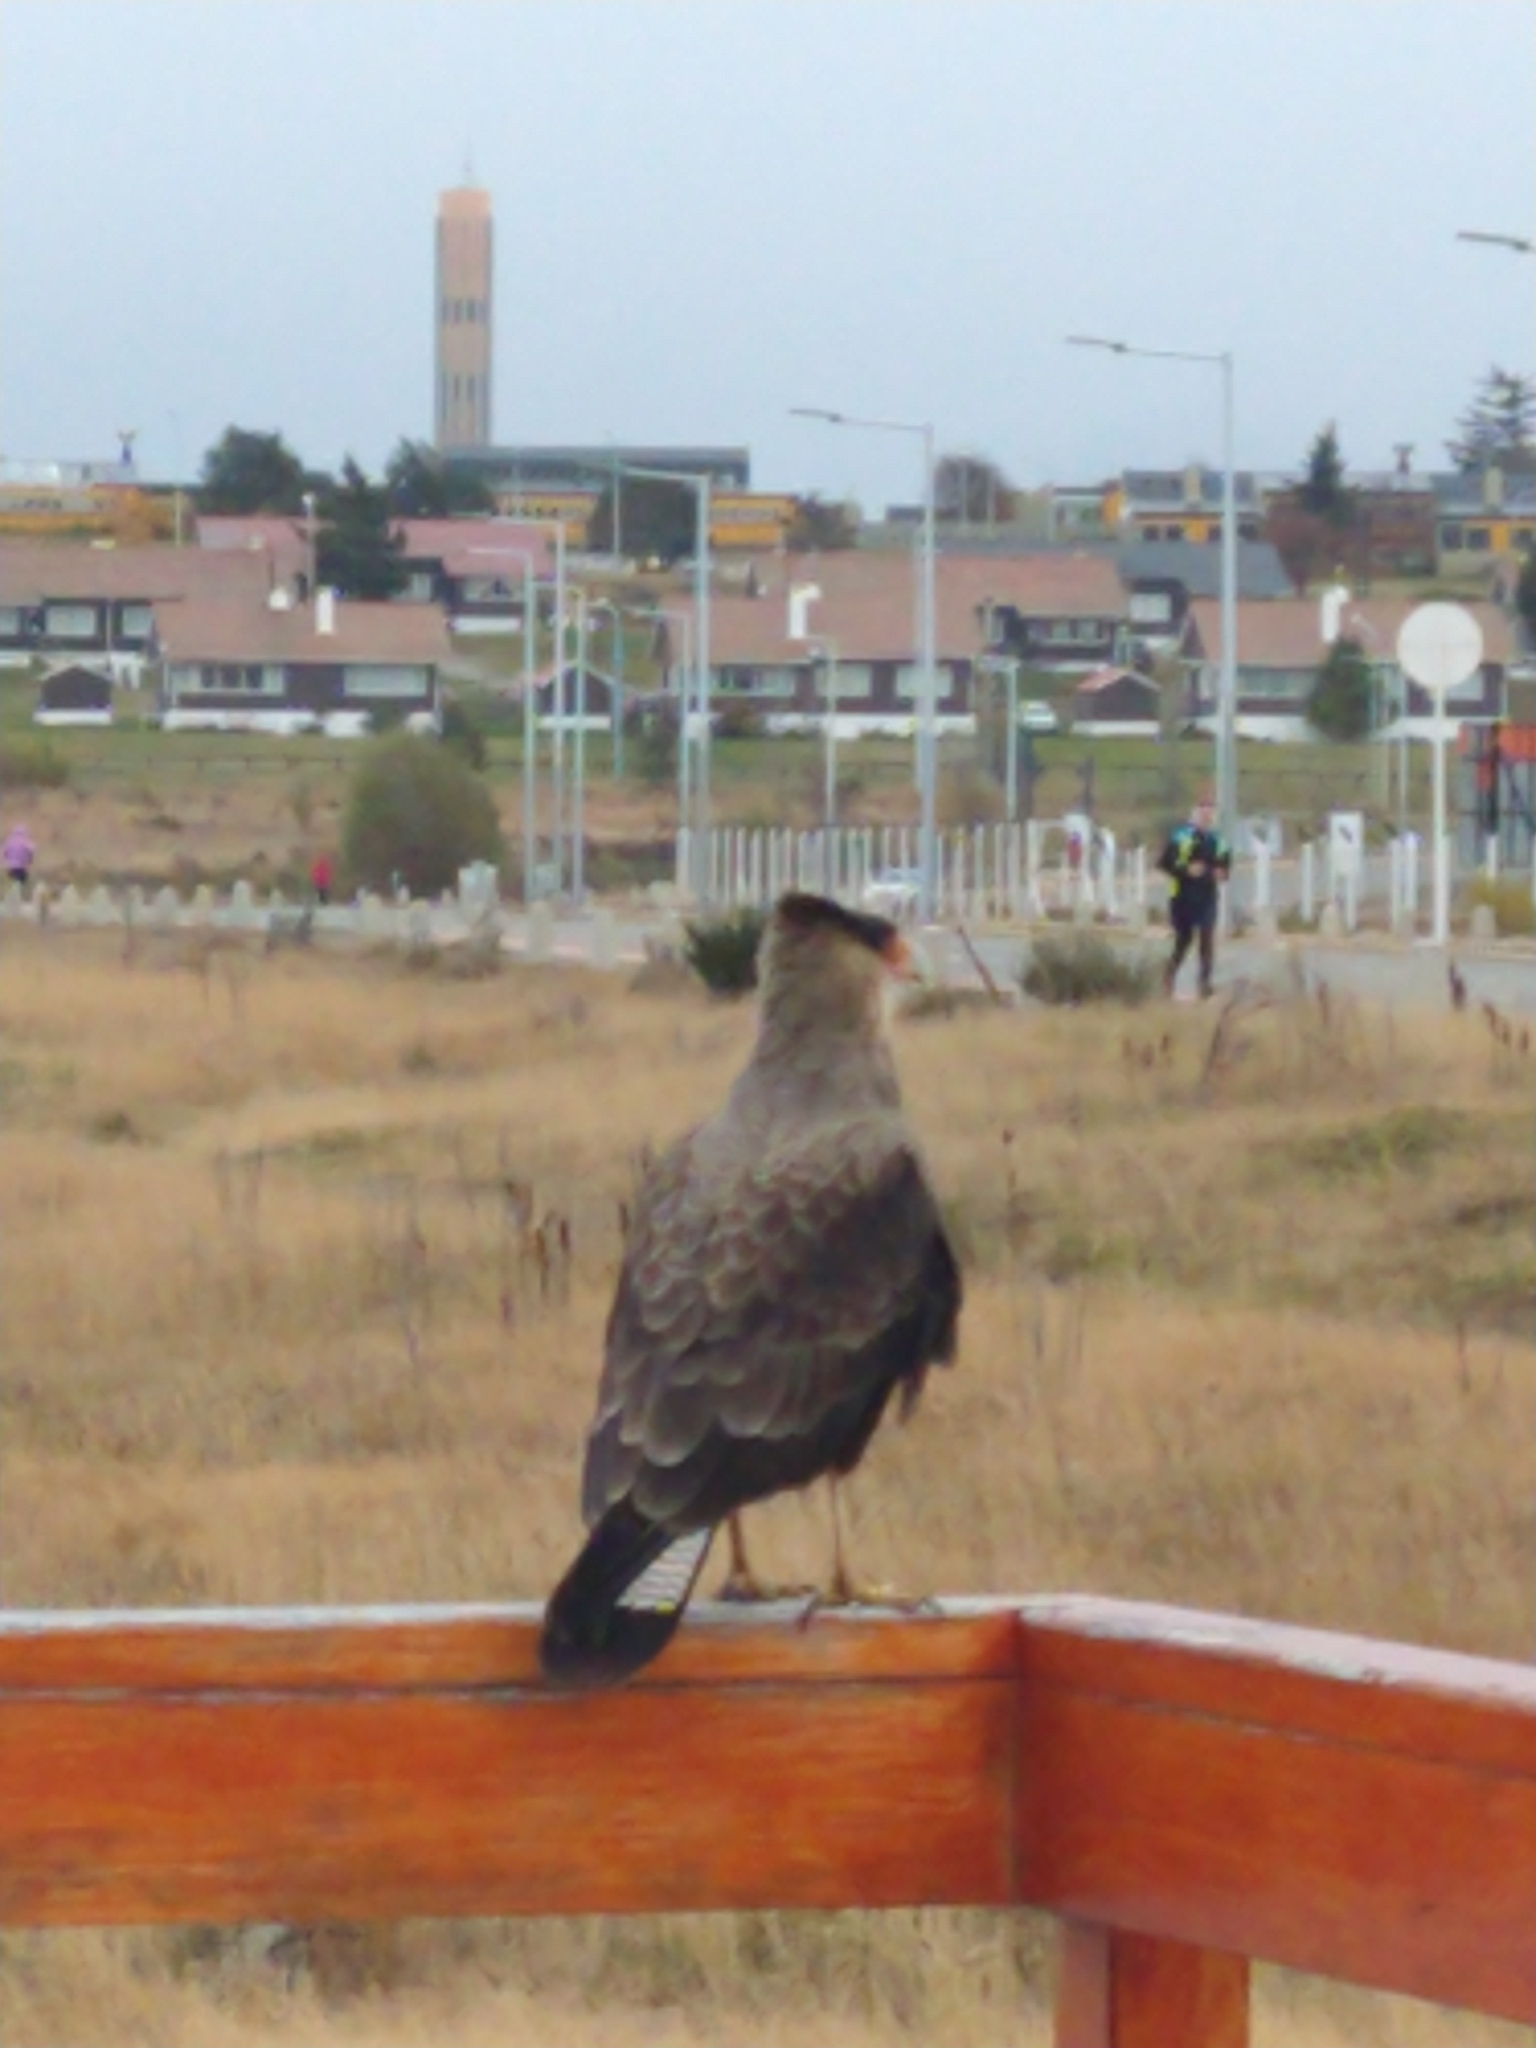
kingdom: Animalia
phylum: Chordata
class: Aves
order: Falconiformes
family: Falconidae
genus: Caracara
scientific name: Caracara plancus
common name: Southern caracara
